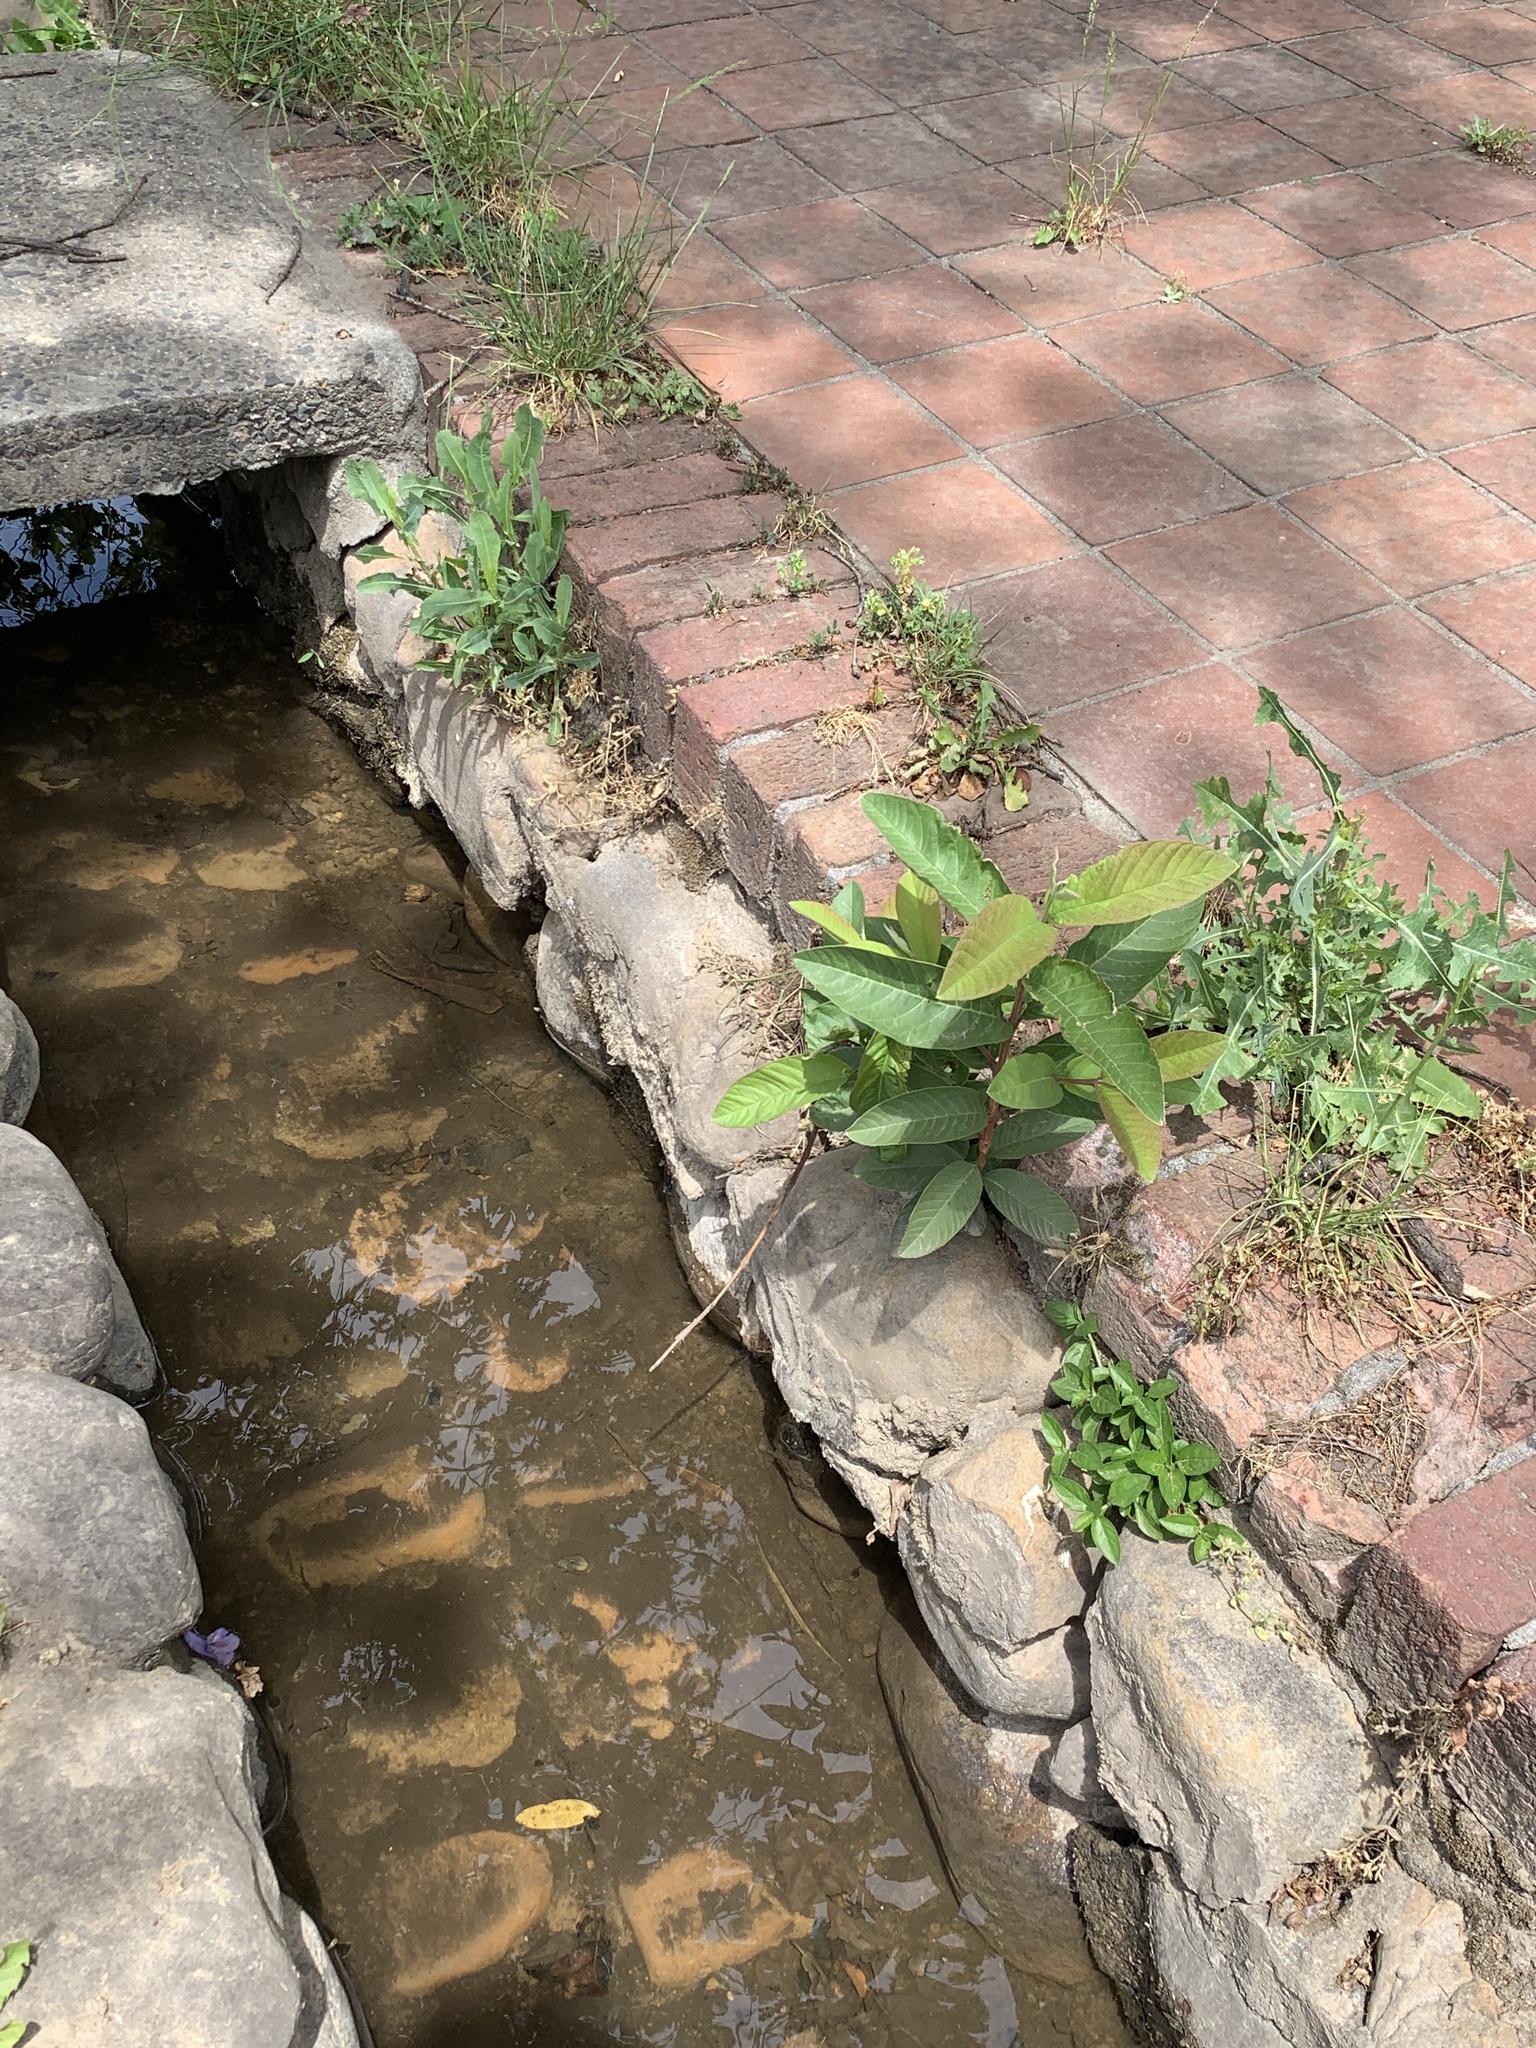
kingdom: Plantae
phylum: Tracheophyta
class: Magnoliopsida
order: Myrtales
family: Myrtaceae
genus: Psidium
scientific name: Psidium guajava
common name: Guava
